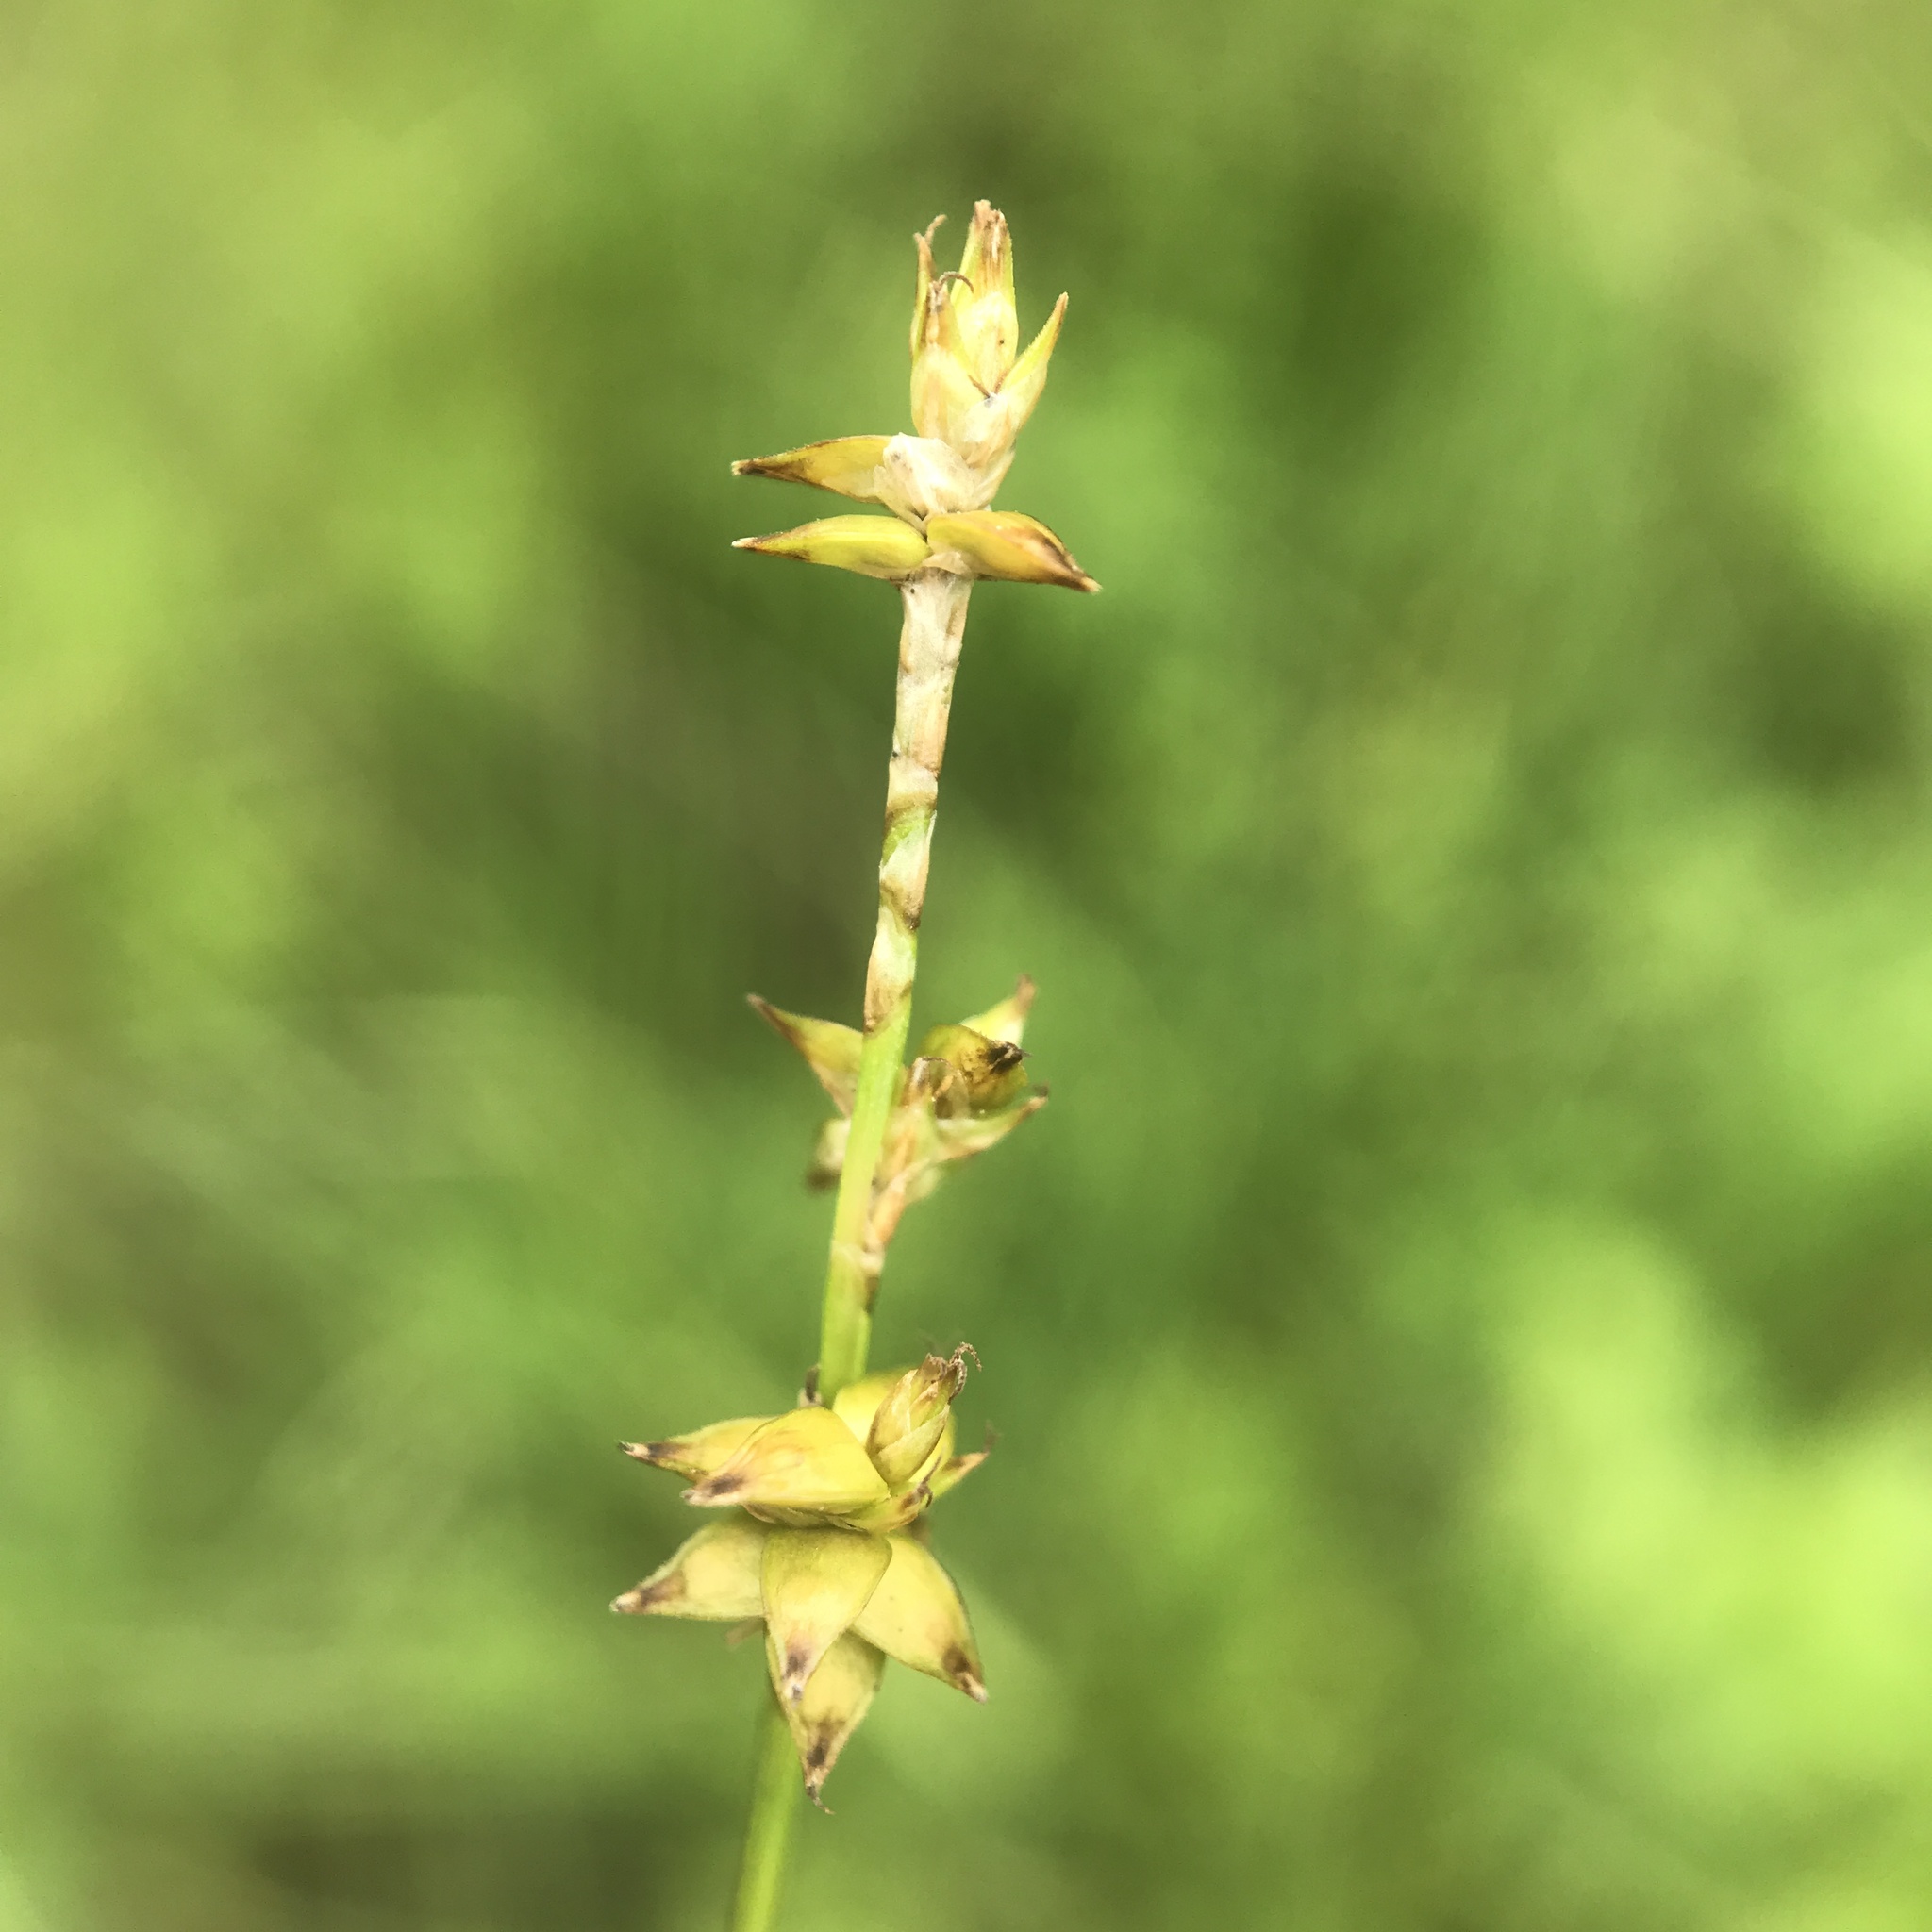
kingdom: Plantae
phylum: Tracheophyta
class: Liliopsida
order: Poales
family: Cyperaceae
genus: Carex
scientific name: Carex interior
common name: Inland sedge
